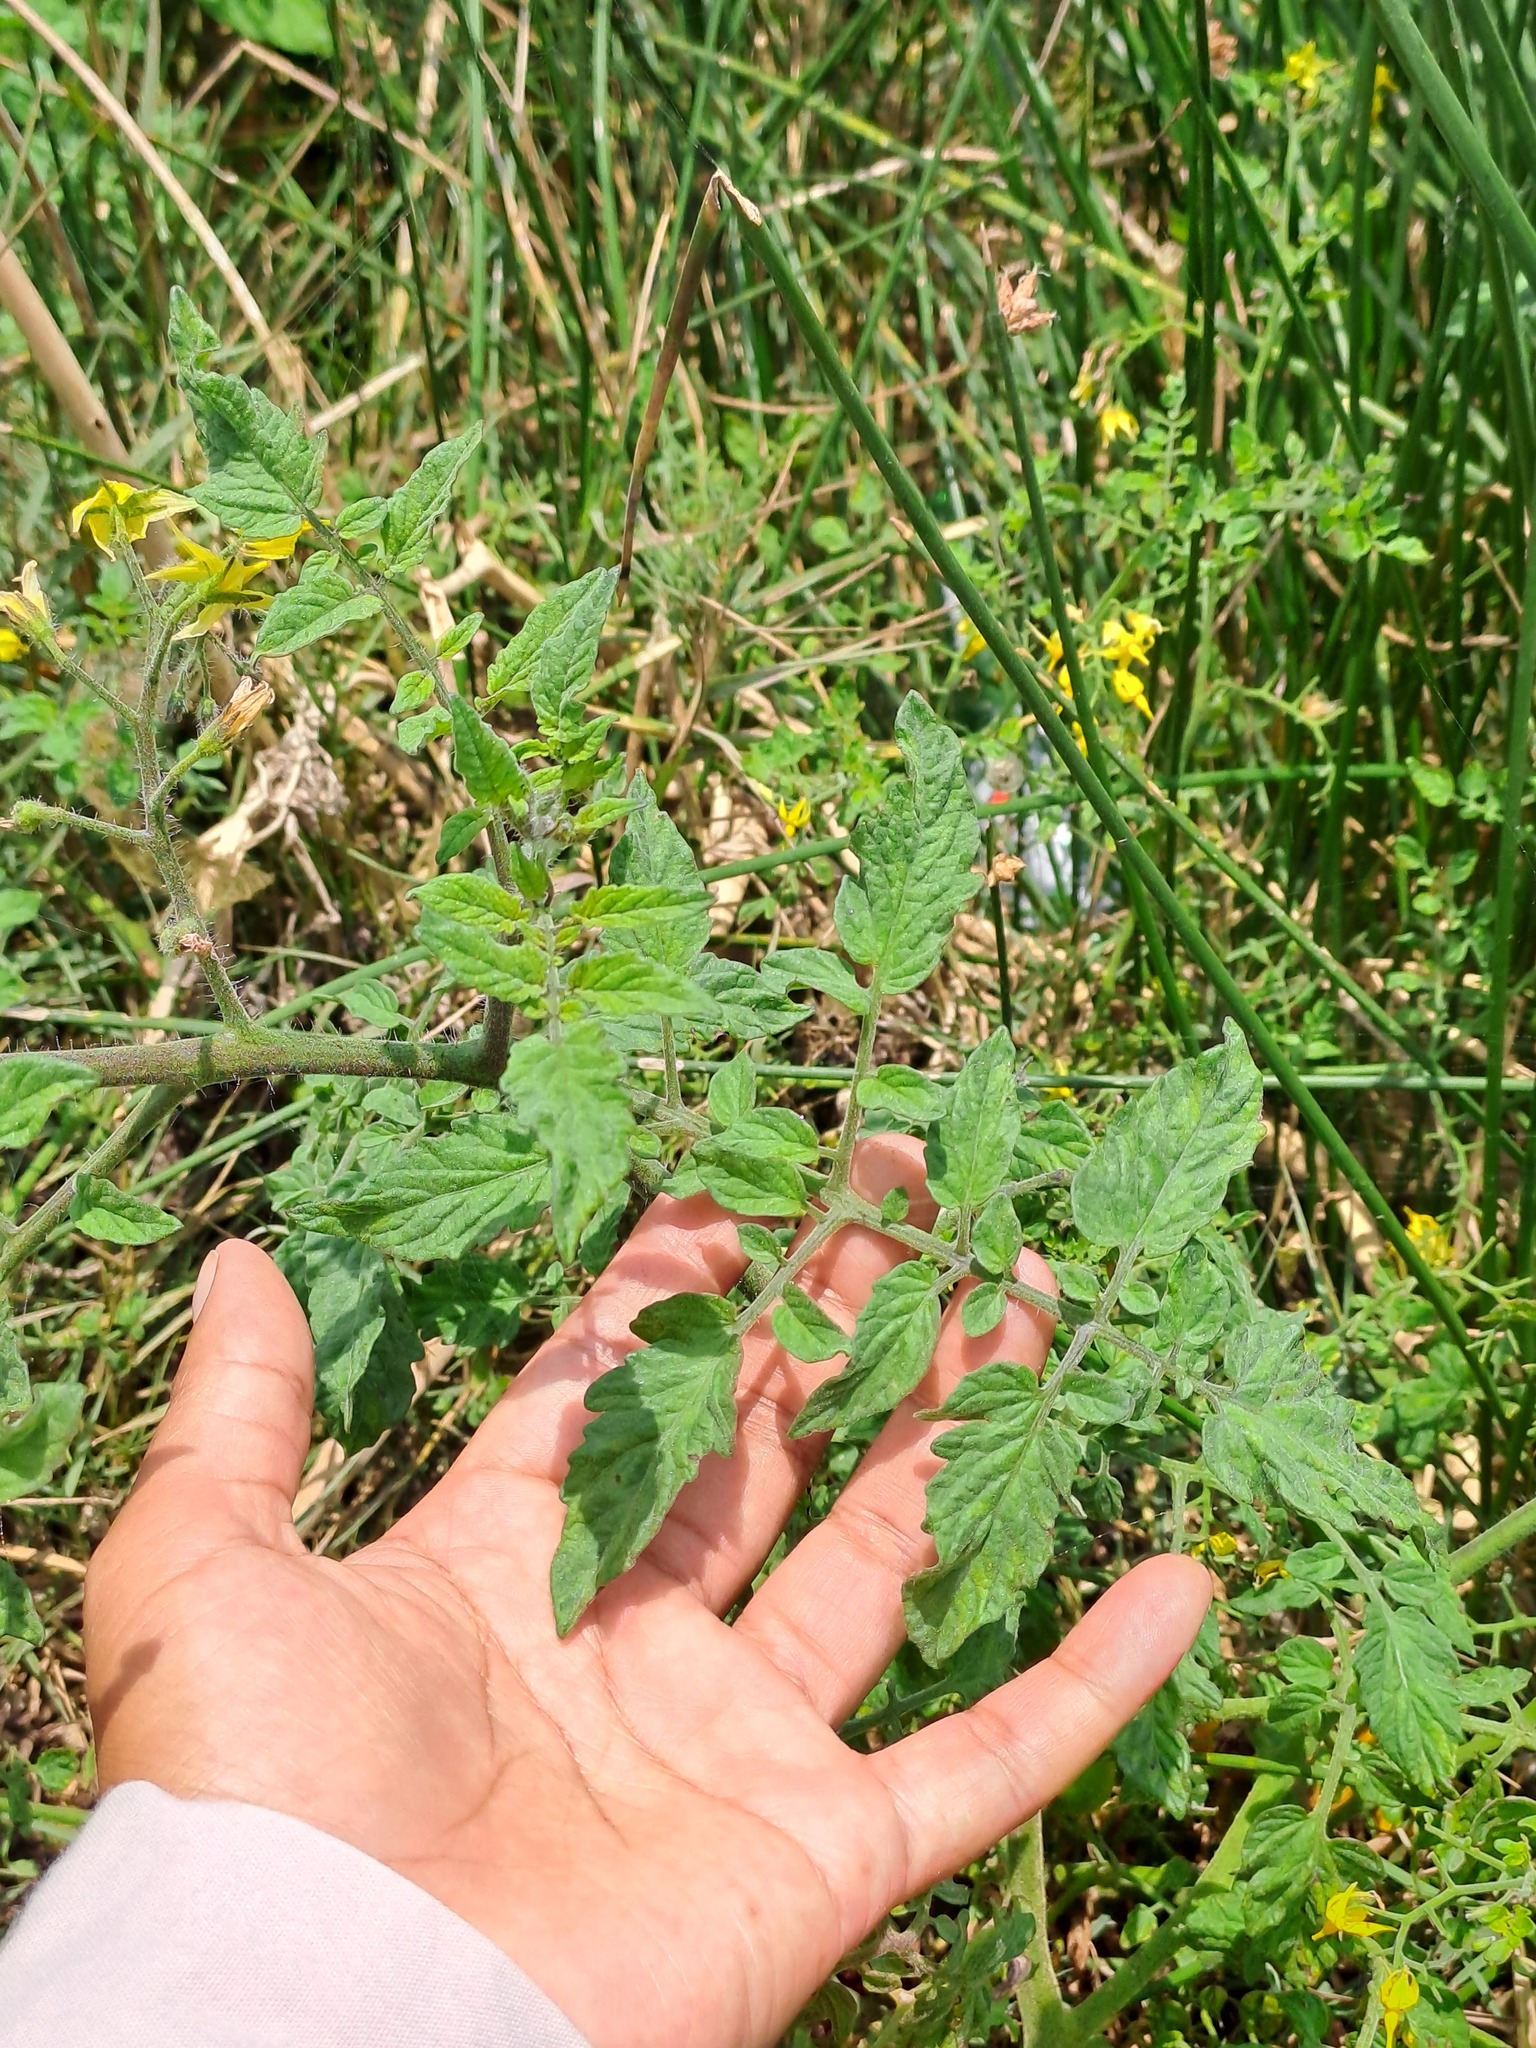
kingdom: Plantae
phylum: Tracheophyta
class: Magnoliopsida
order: Solanales
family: Solanaceae
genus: Solanum
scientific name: Solanum lycopersicum
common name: Garden tomato
